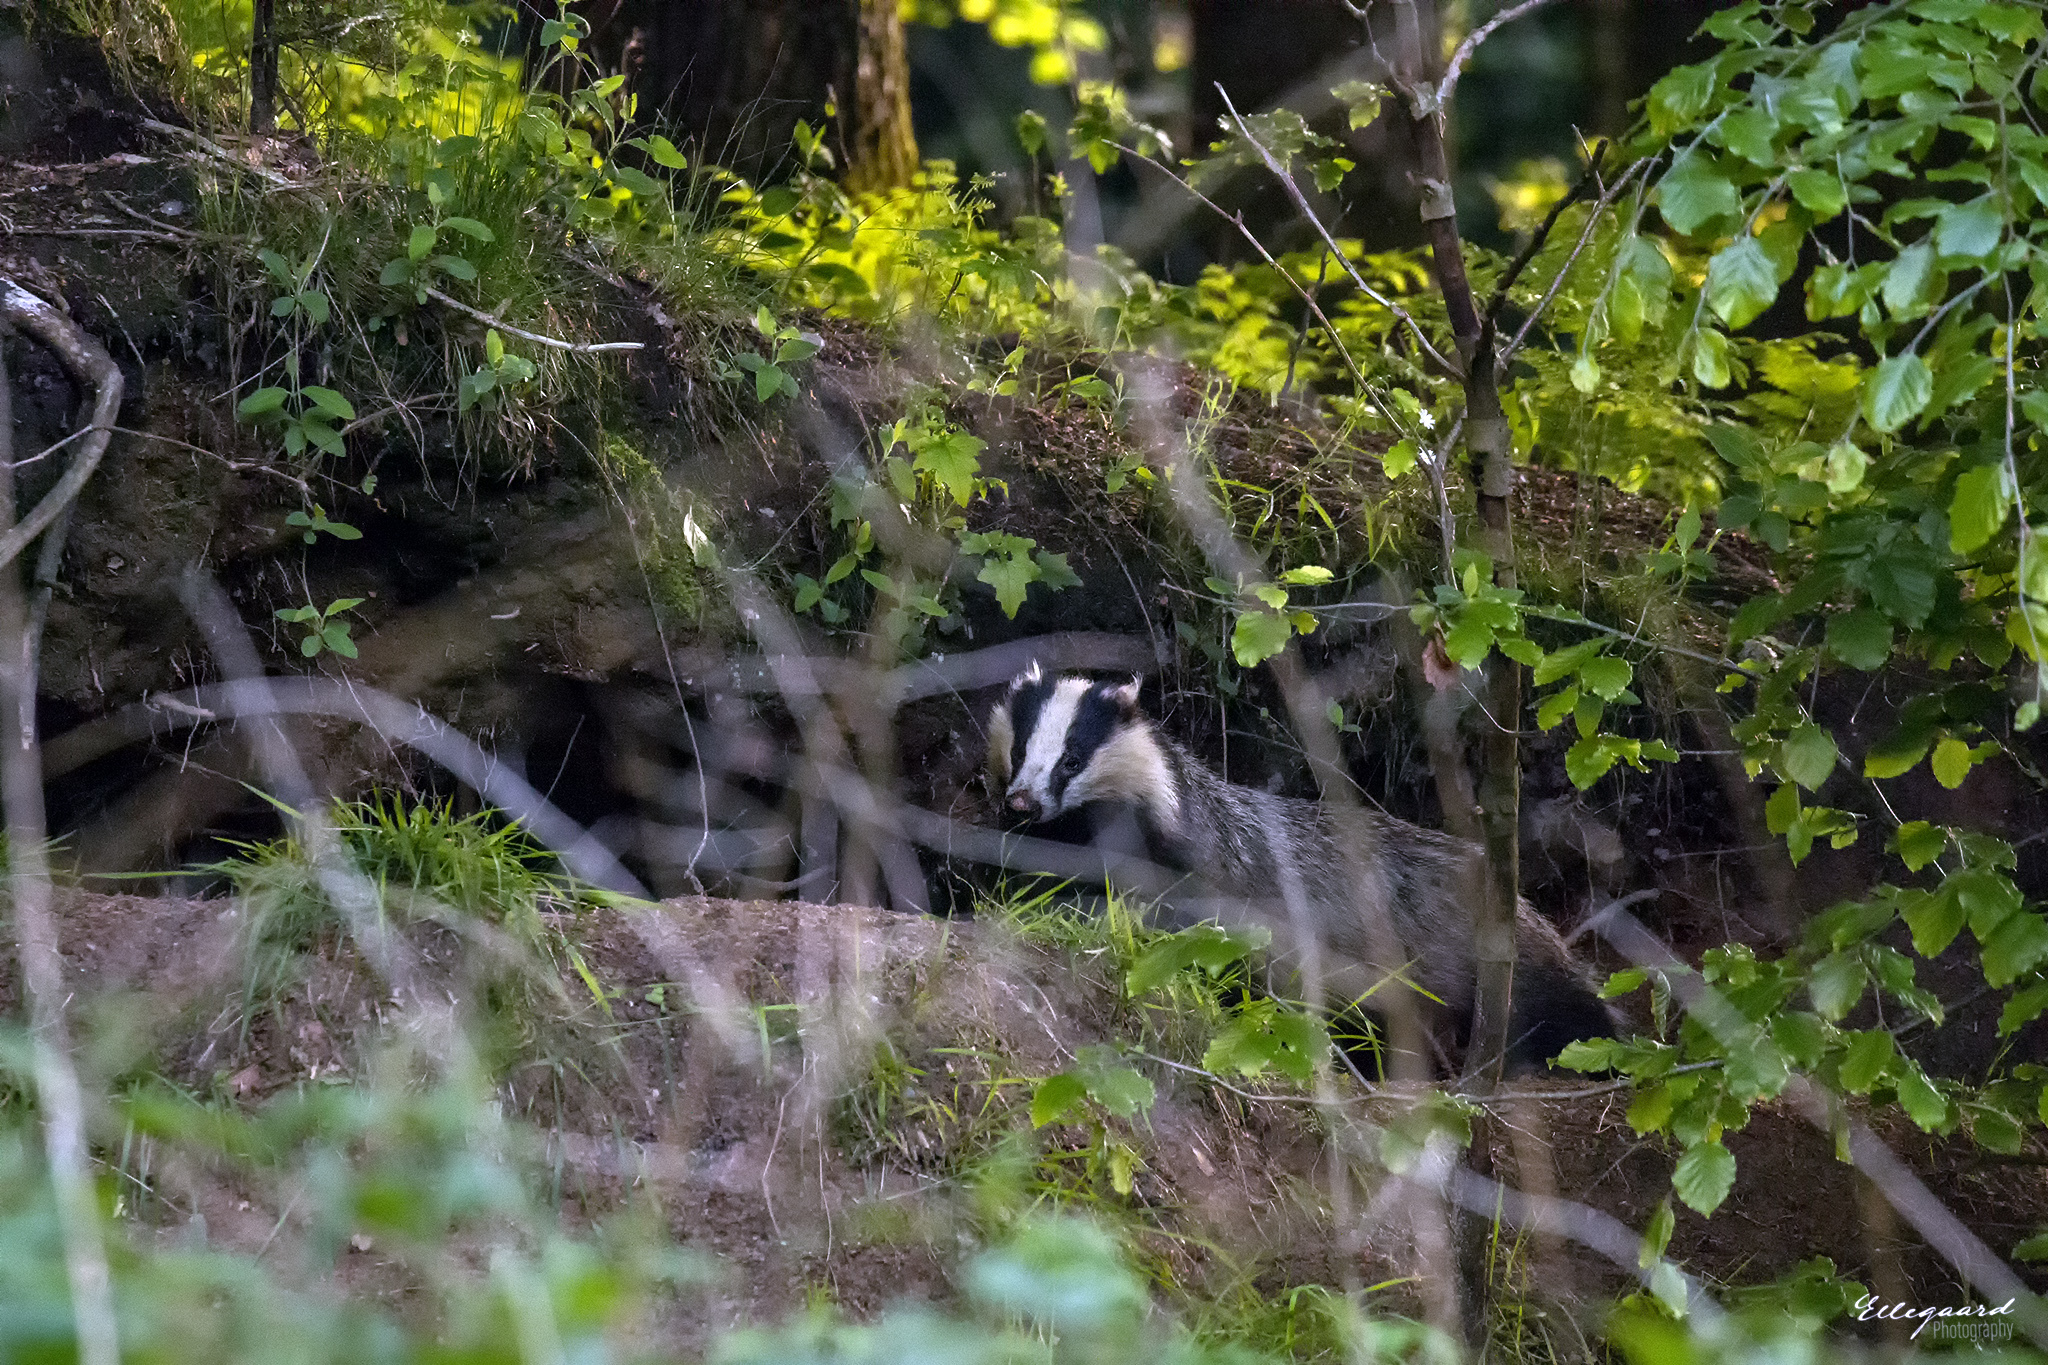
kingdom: Animalia
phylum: Chordata
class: Mammalia
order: Carnivora
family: Mustelidae
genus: Meles
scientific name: Meles meles
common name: Eurasian badger
